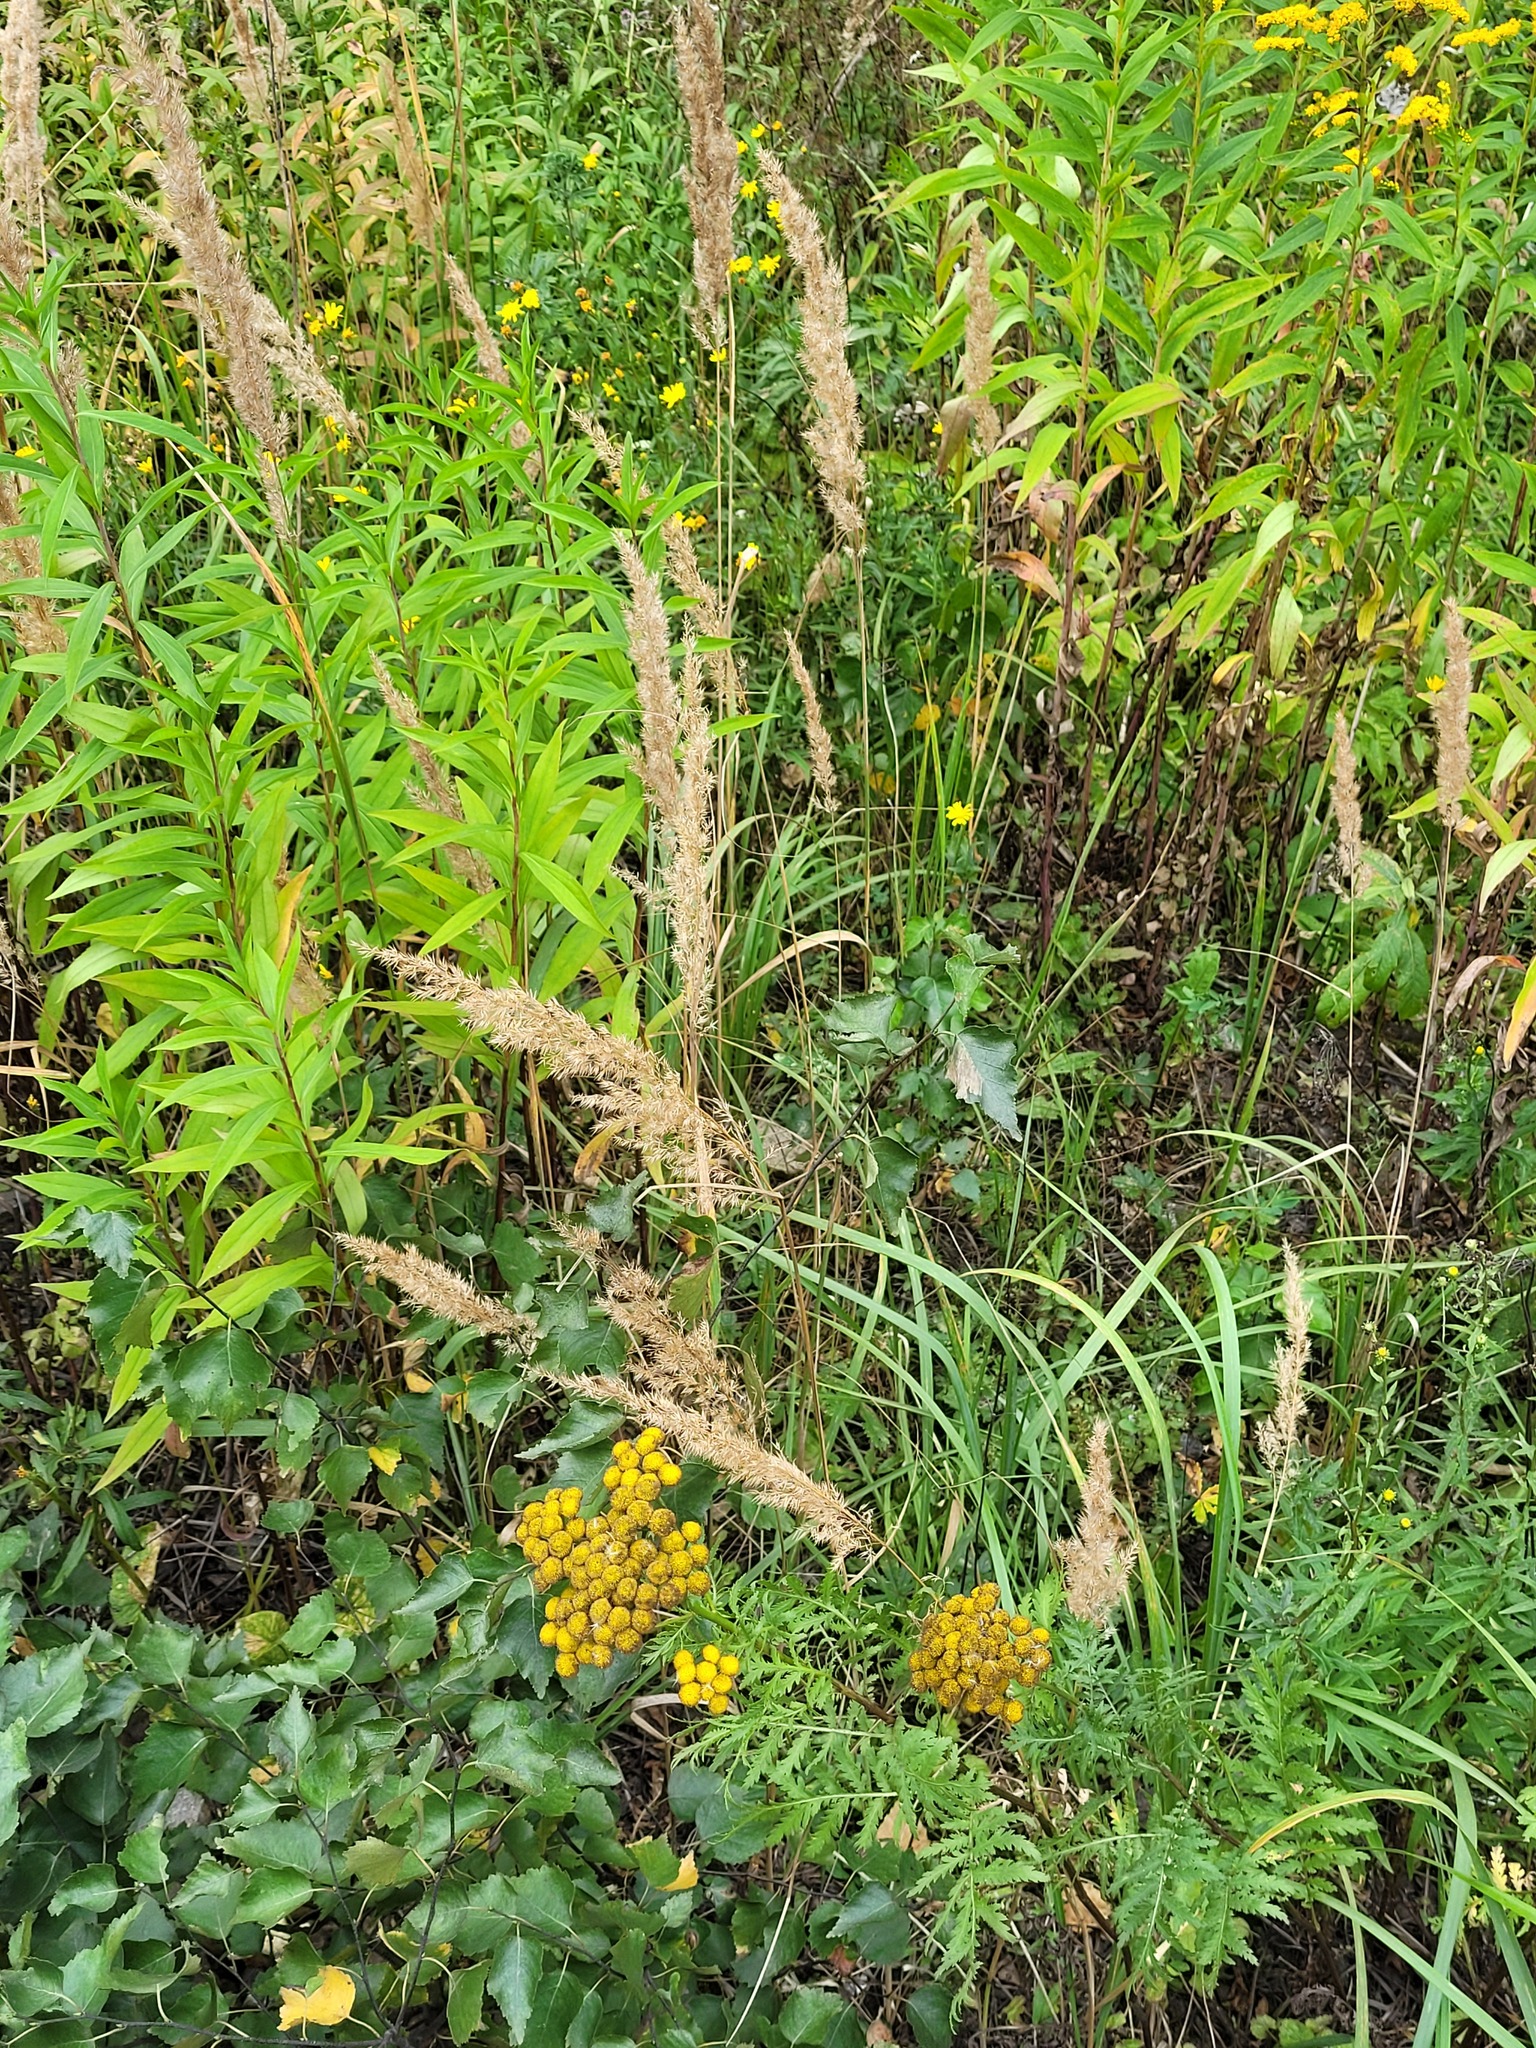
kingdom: Plantae
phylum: Tracheophyta
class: Liliopsida
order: Poales
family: Poaceae
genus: Calamagrostis
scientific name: Calamagrostis epigejos
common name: Wood small-reed
